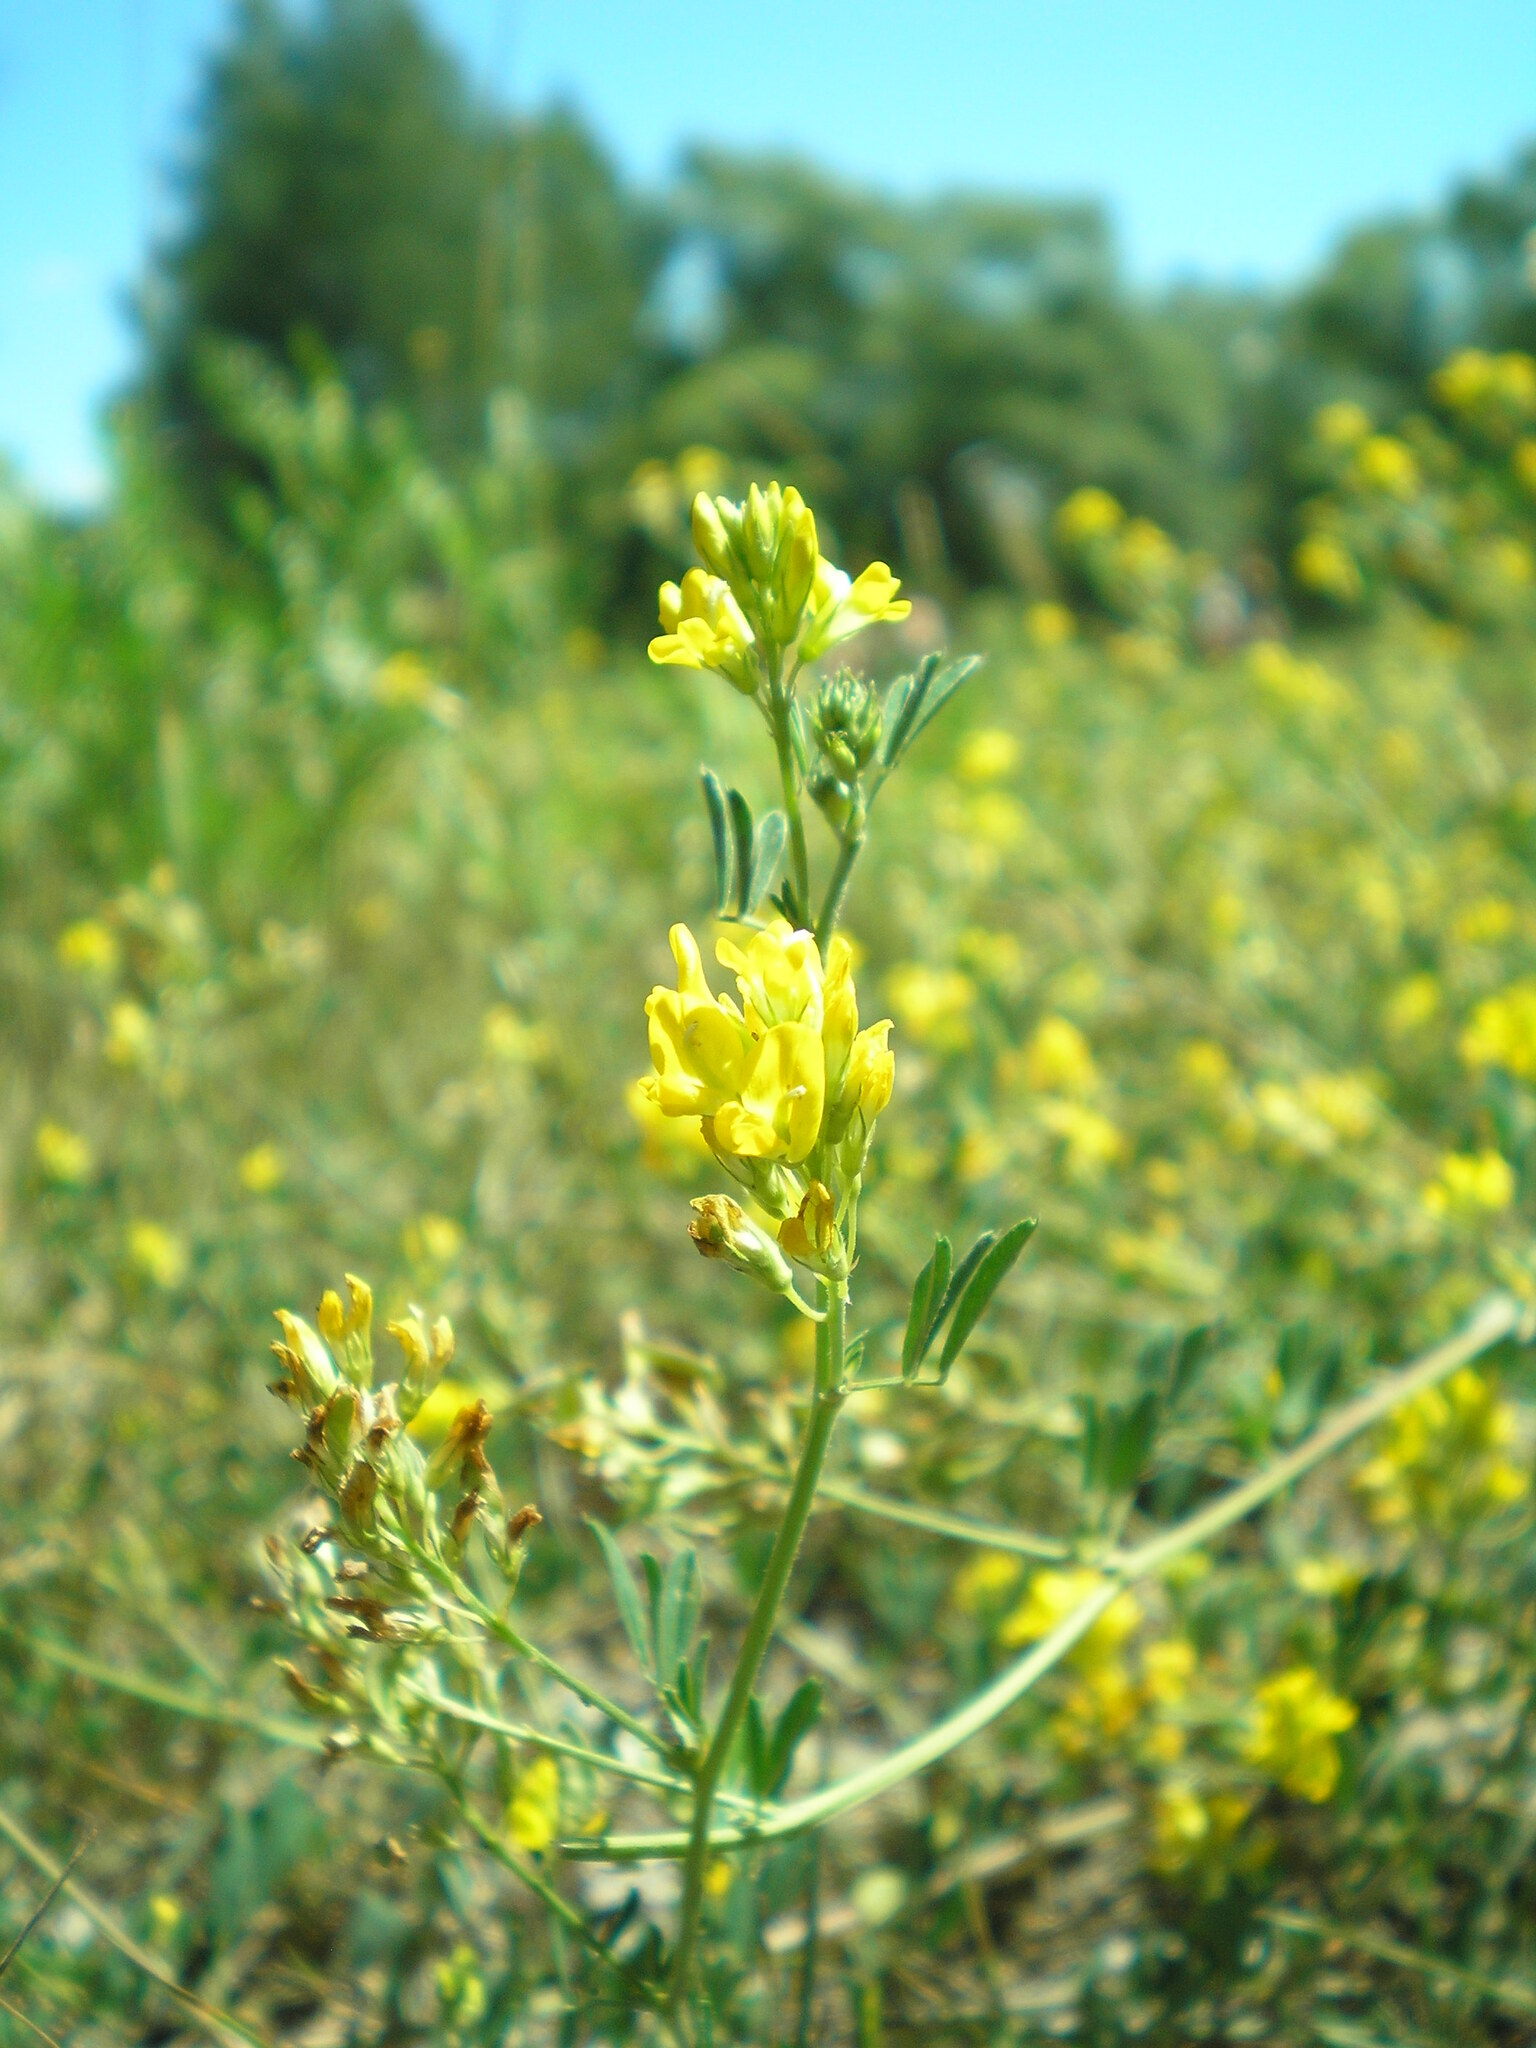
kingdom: Plantae
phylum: Tracheophyta
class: Magnoliopsida
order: Fabales
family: Fabaceae
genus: Medicago
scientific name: Medicago falcata
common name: Sickle medick
